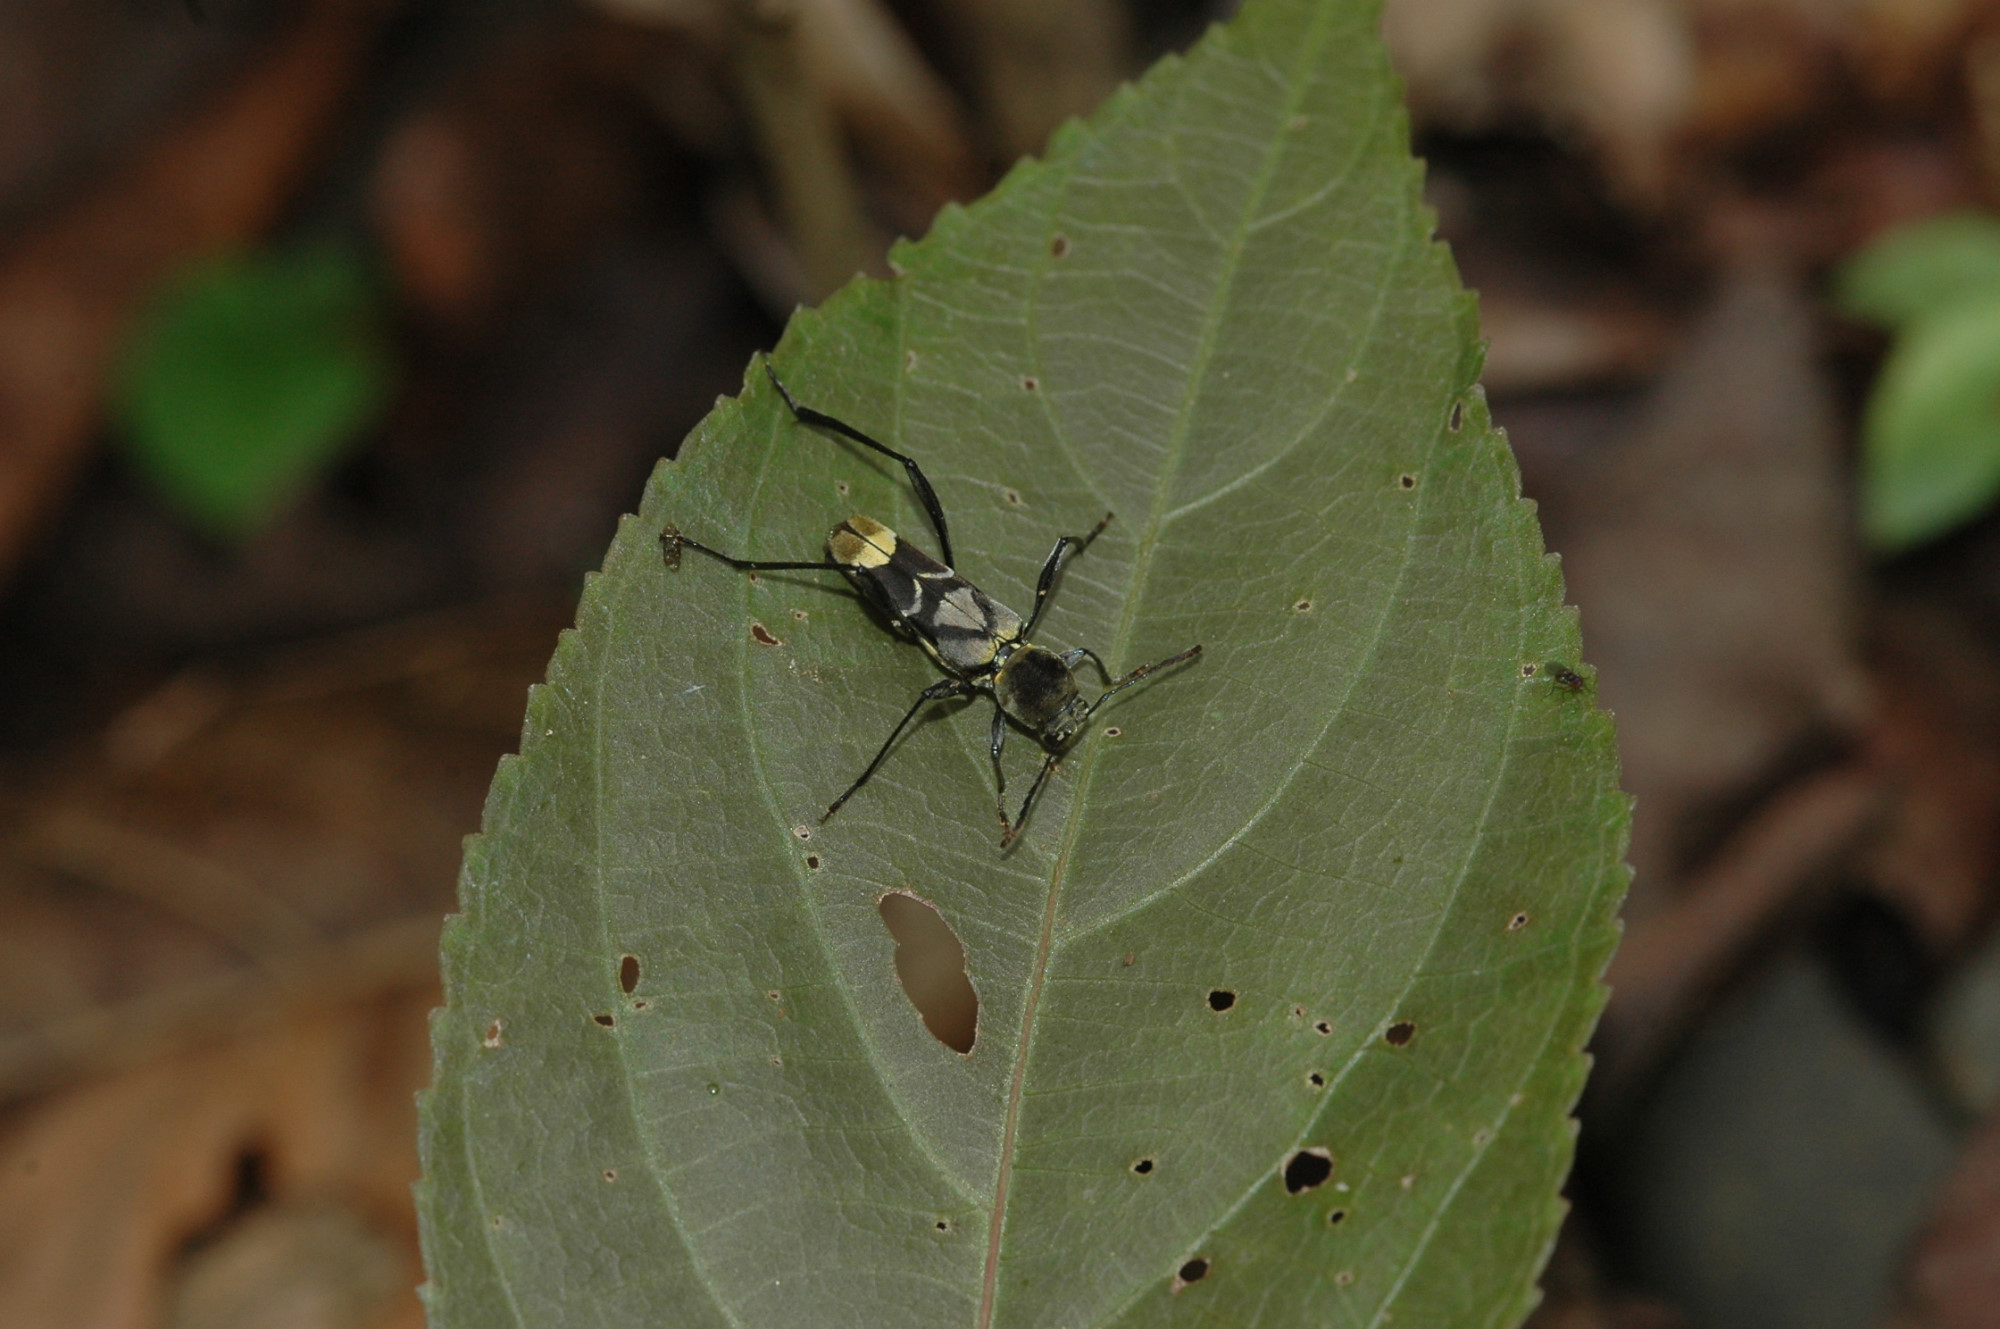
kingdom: Animalia
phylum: Arthropoda
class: Insecta
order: Coleoptera
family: Cerambycidae
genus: Cotyclytus
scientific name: Cotyclytus scenicus
